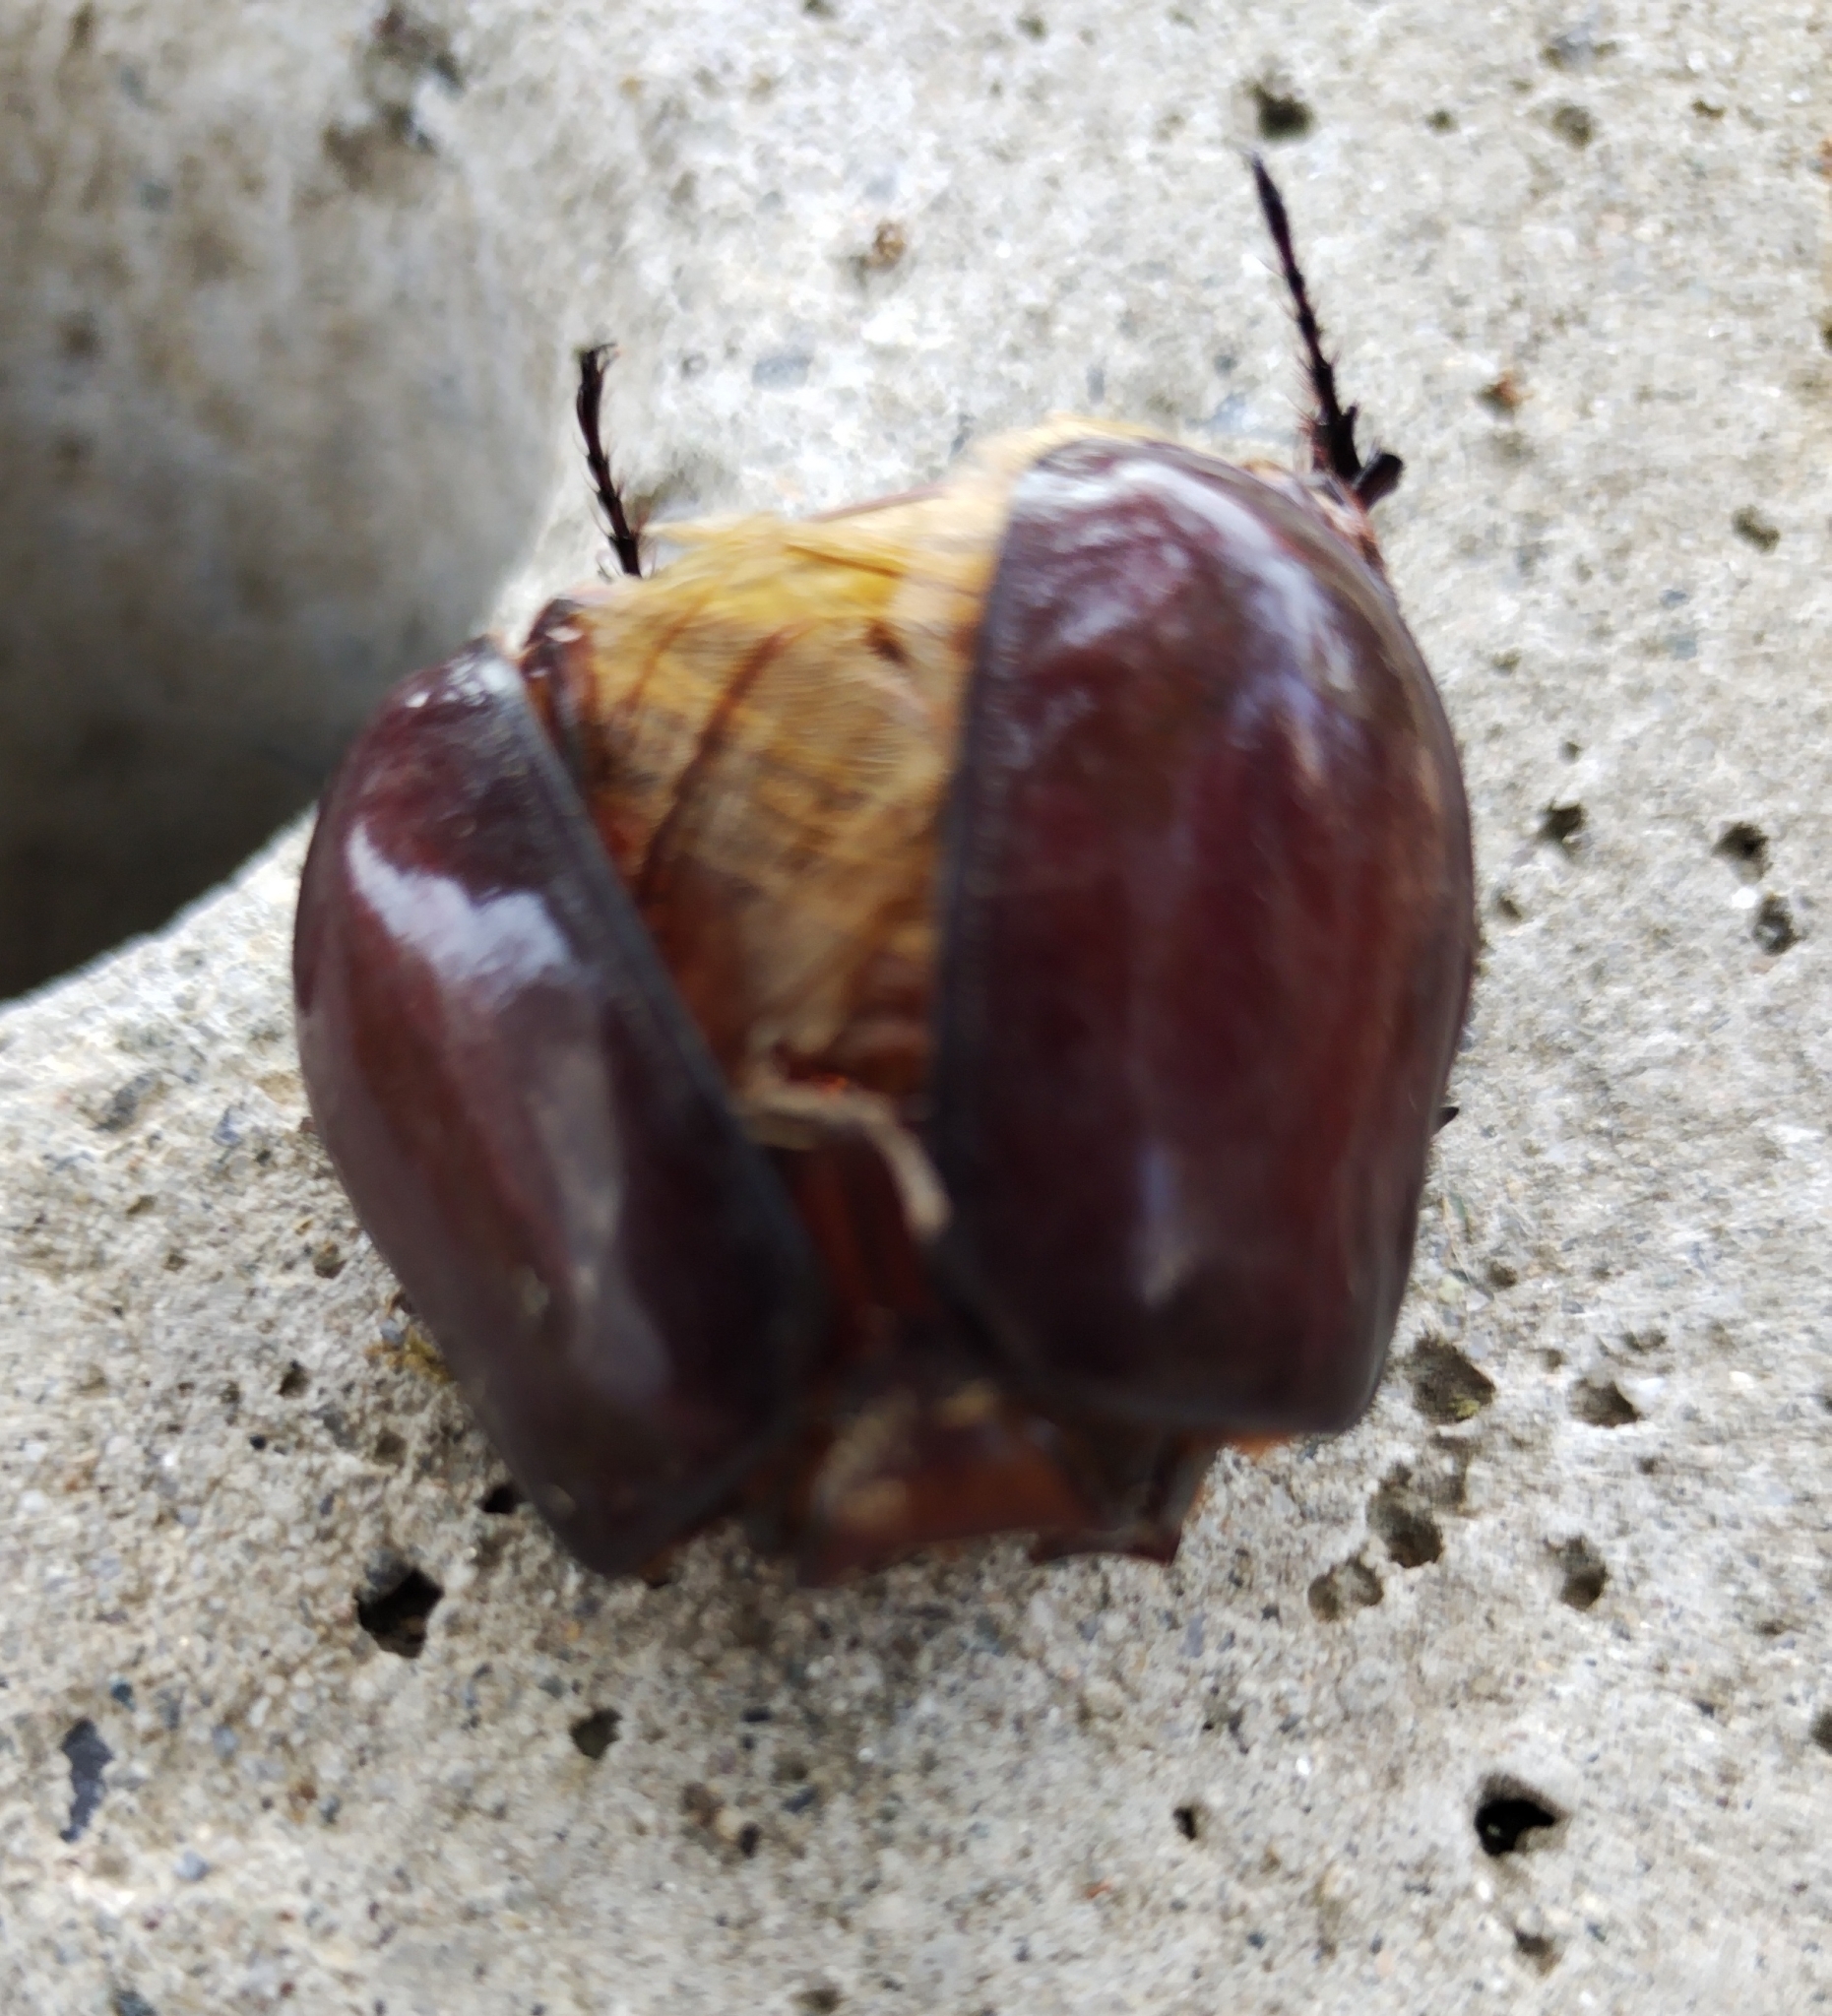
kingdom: Animalia
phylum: Arthropoda
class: Insecta
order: Coleoptera
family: Scarabaeidae
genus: Oryctes
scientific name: Oryctes nasicornis
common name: European rhinoceros beetle
